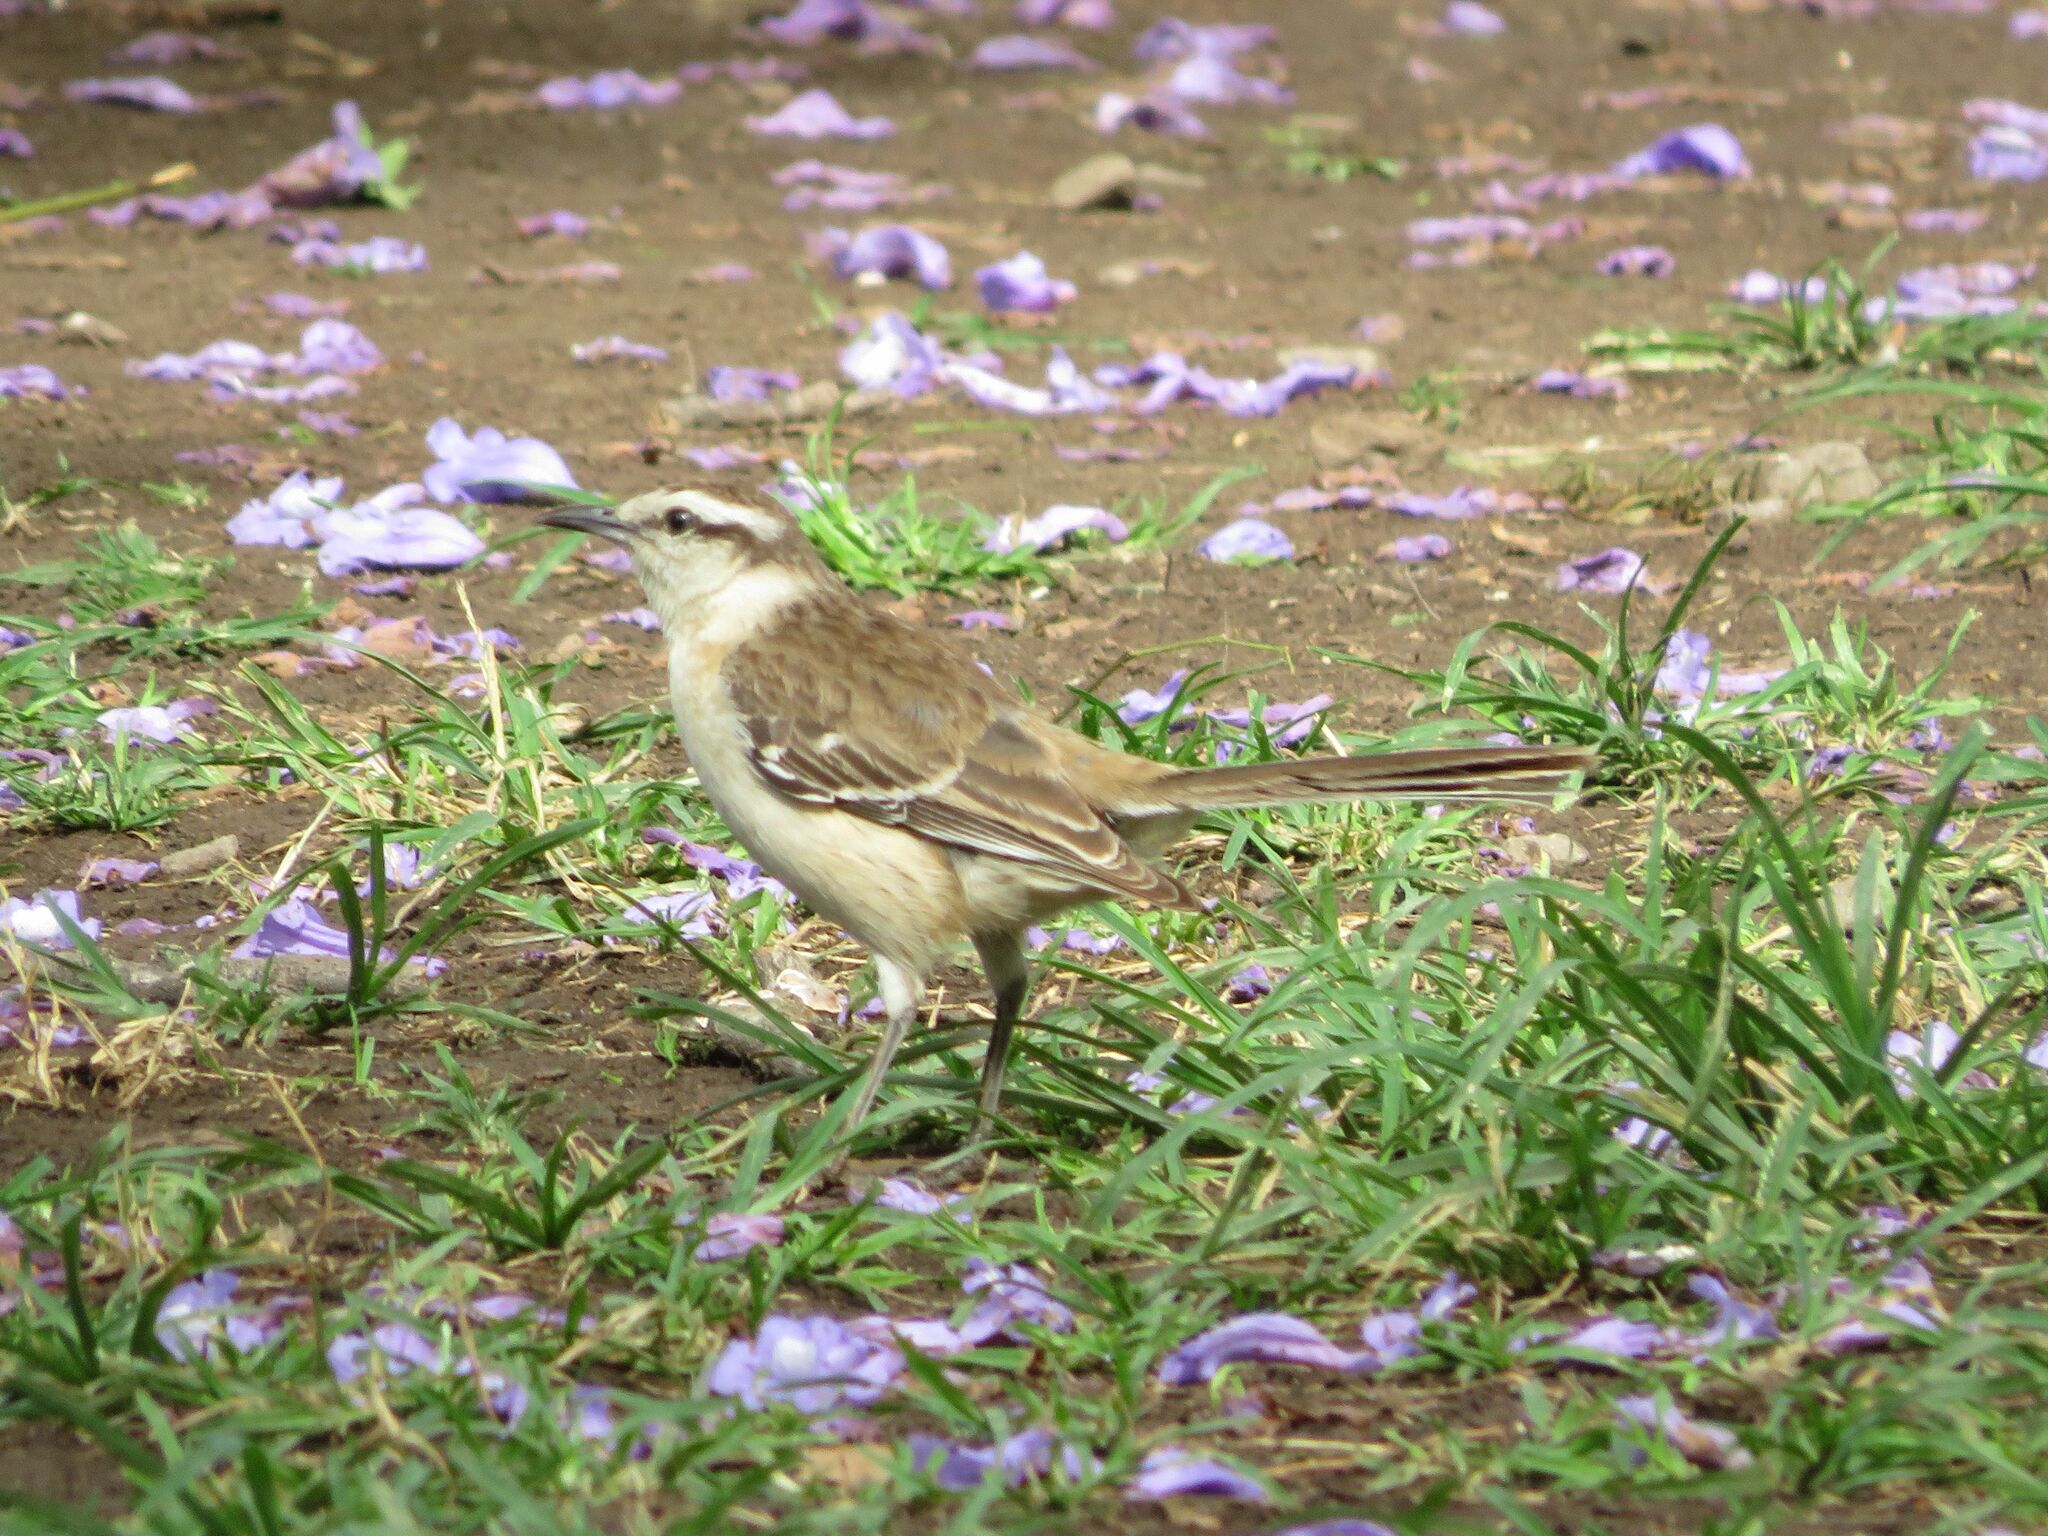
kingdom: Animalia
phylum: Chordata
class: Aves
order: Passeriformes
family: Mimidae
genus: Mimus
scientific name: Mimus saturninus
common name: Chalk-browed mockingbird
